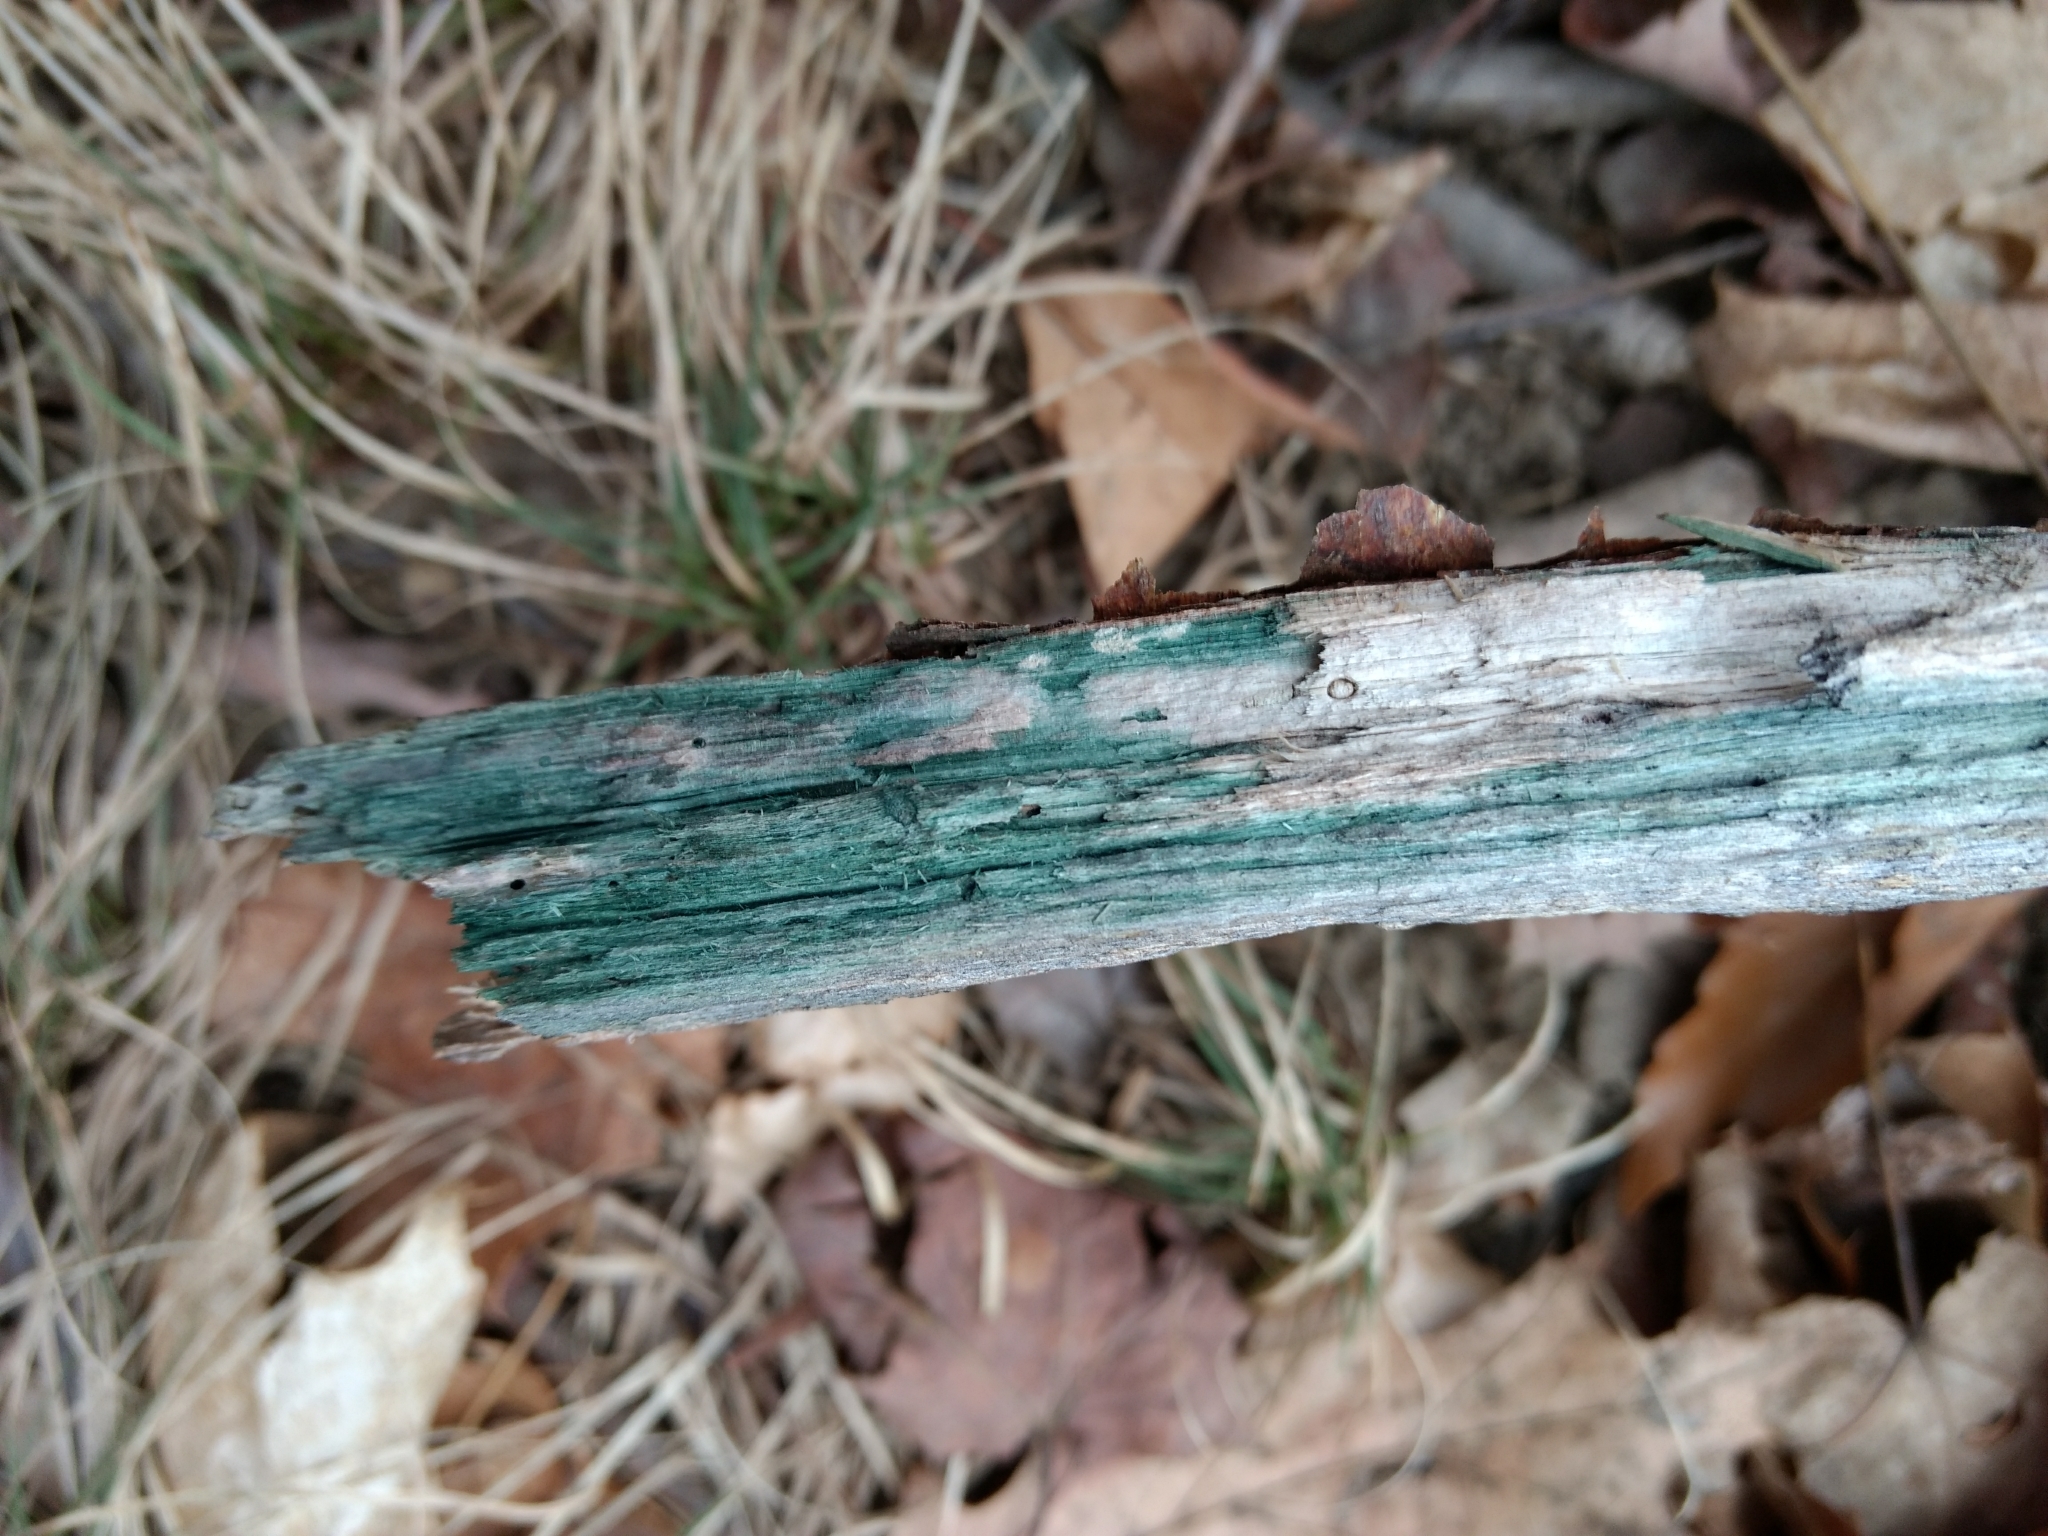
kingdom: Fungi
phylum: Ascomycota
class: Leotiomycetes
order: Helotiales
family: Chlorociboriaceae
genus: Chlorociboria
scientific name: Chlorociboria
